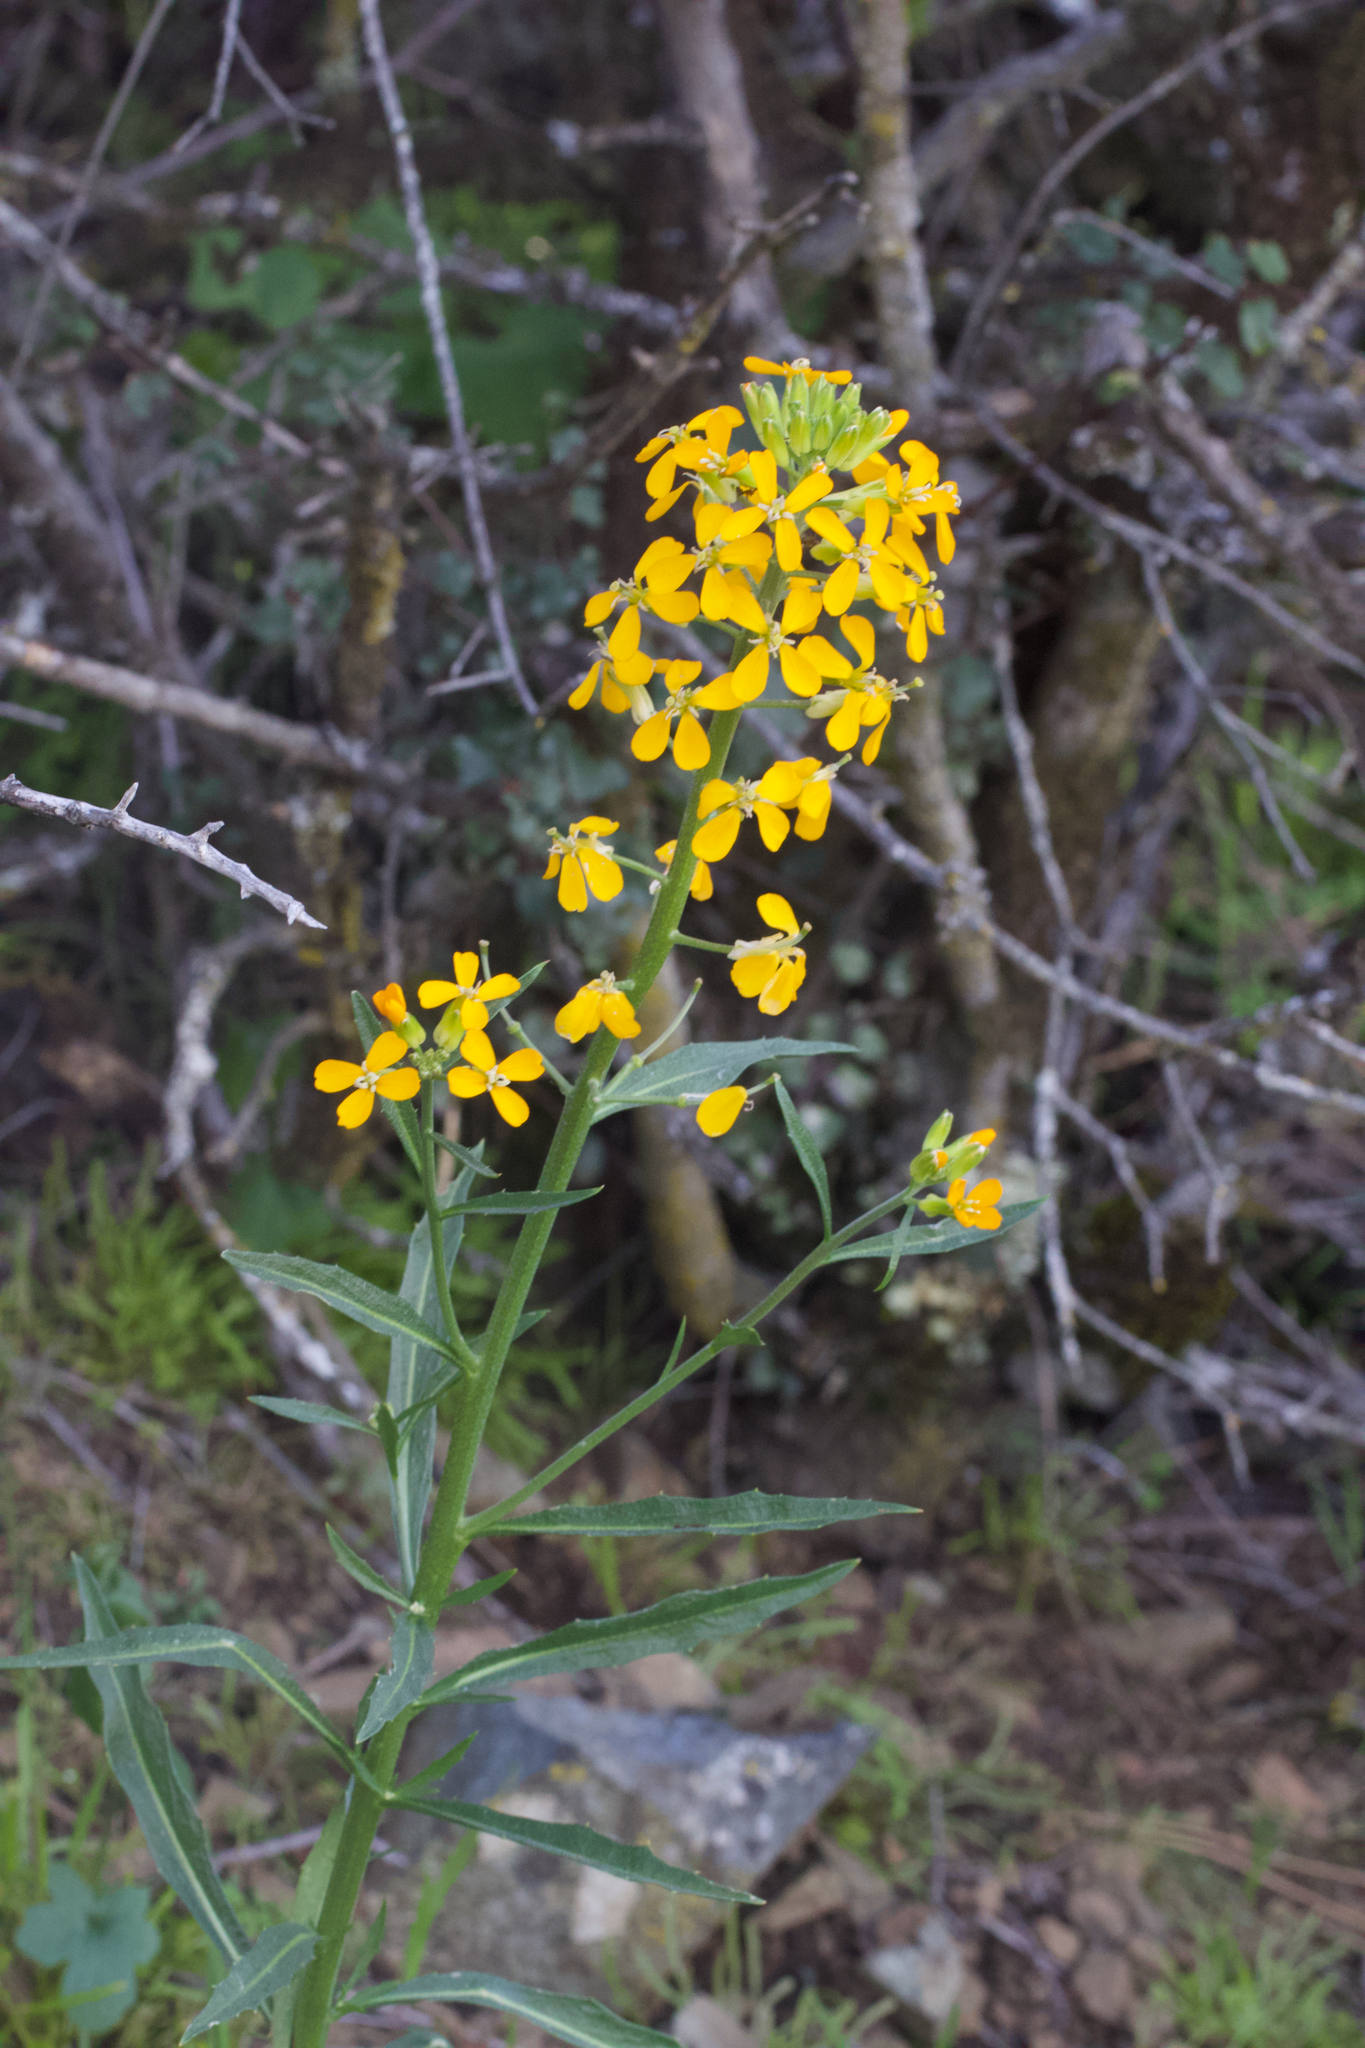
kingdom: Plantae
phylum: Tracheophyta
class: Magnoliopsida
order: Brassicales
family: Brassicaceae
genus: Erysimum
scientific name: Erysimum capitatum
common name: Western wallflower
